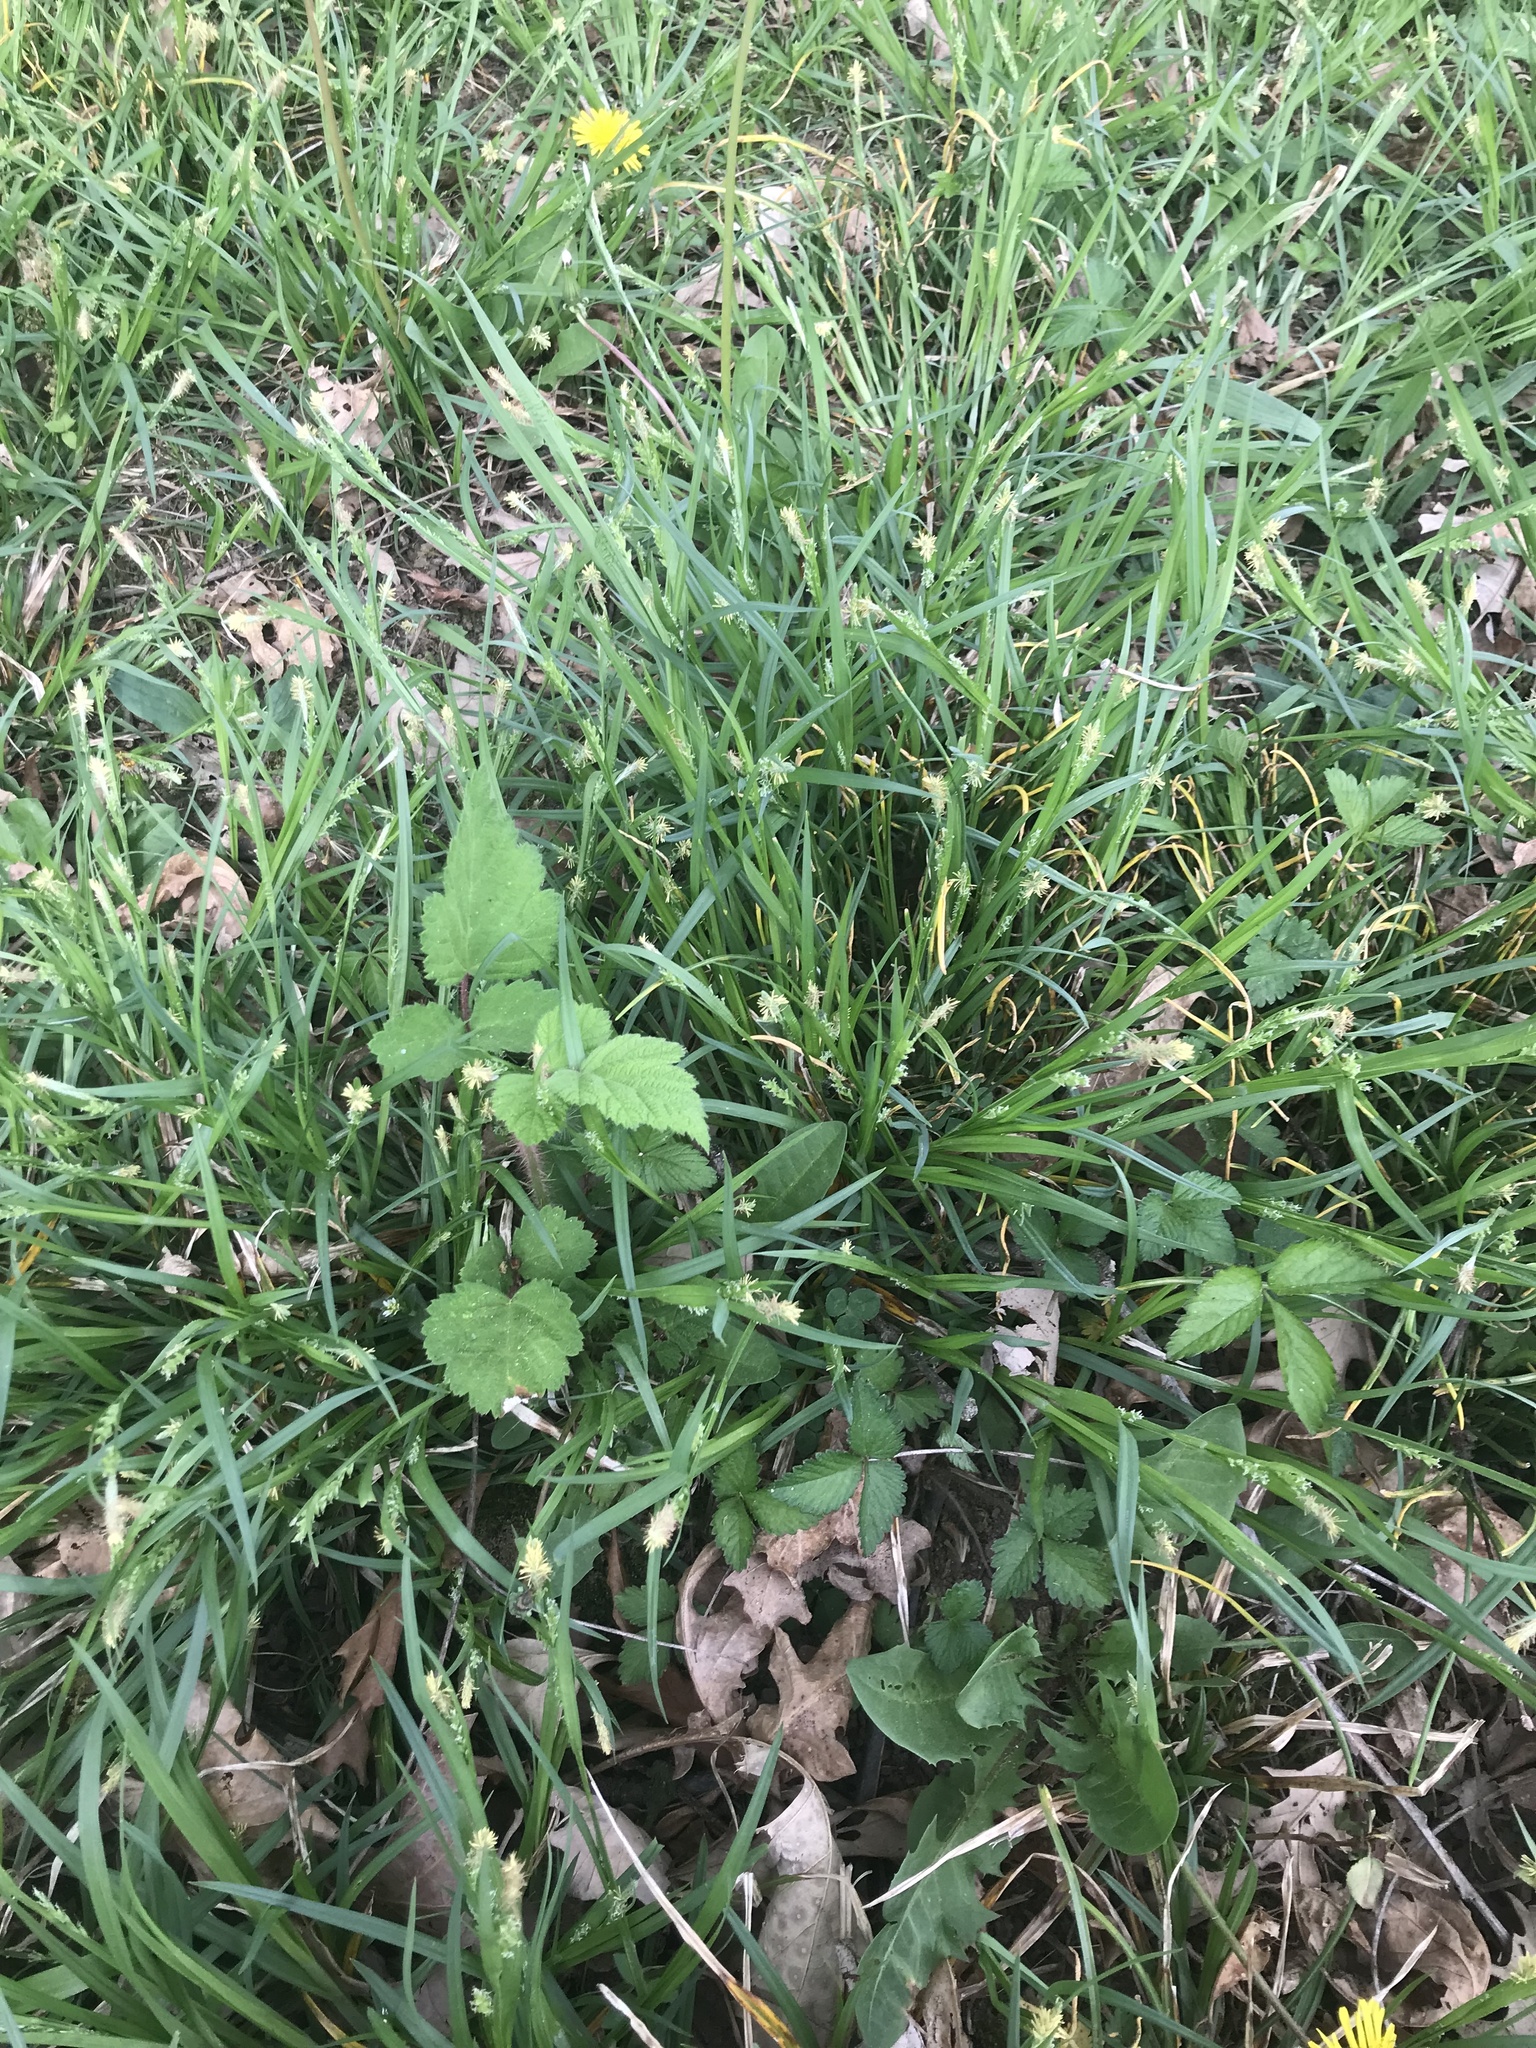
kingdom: Plantae
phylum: Tracheophyta
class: Magnoliopsida
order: Rosales
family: Rosaceae
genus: Rubus
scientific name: Rubus phoenicolasius
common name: Japanese wineberry
